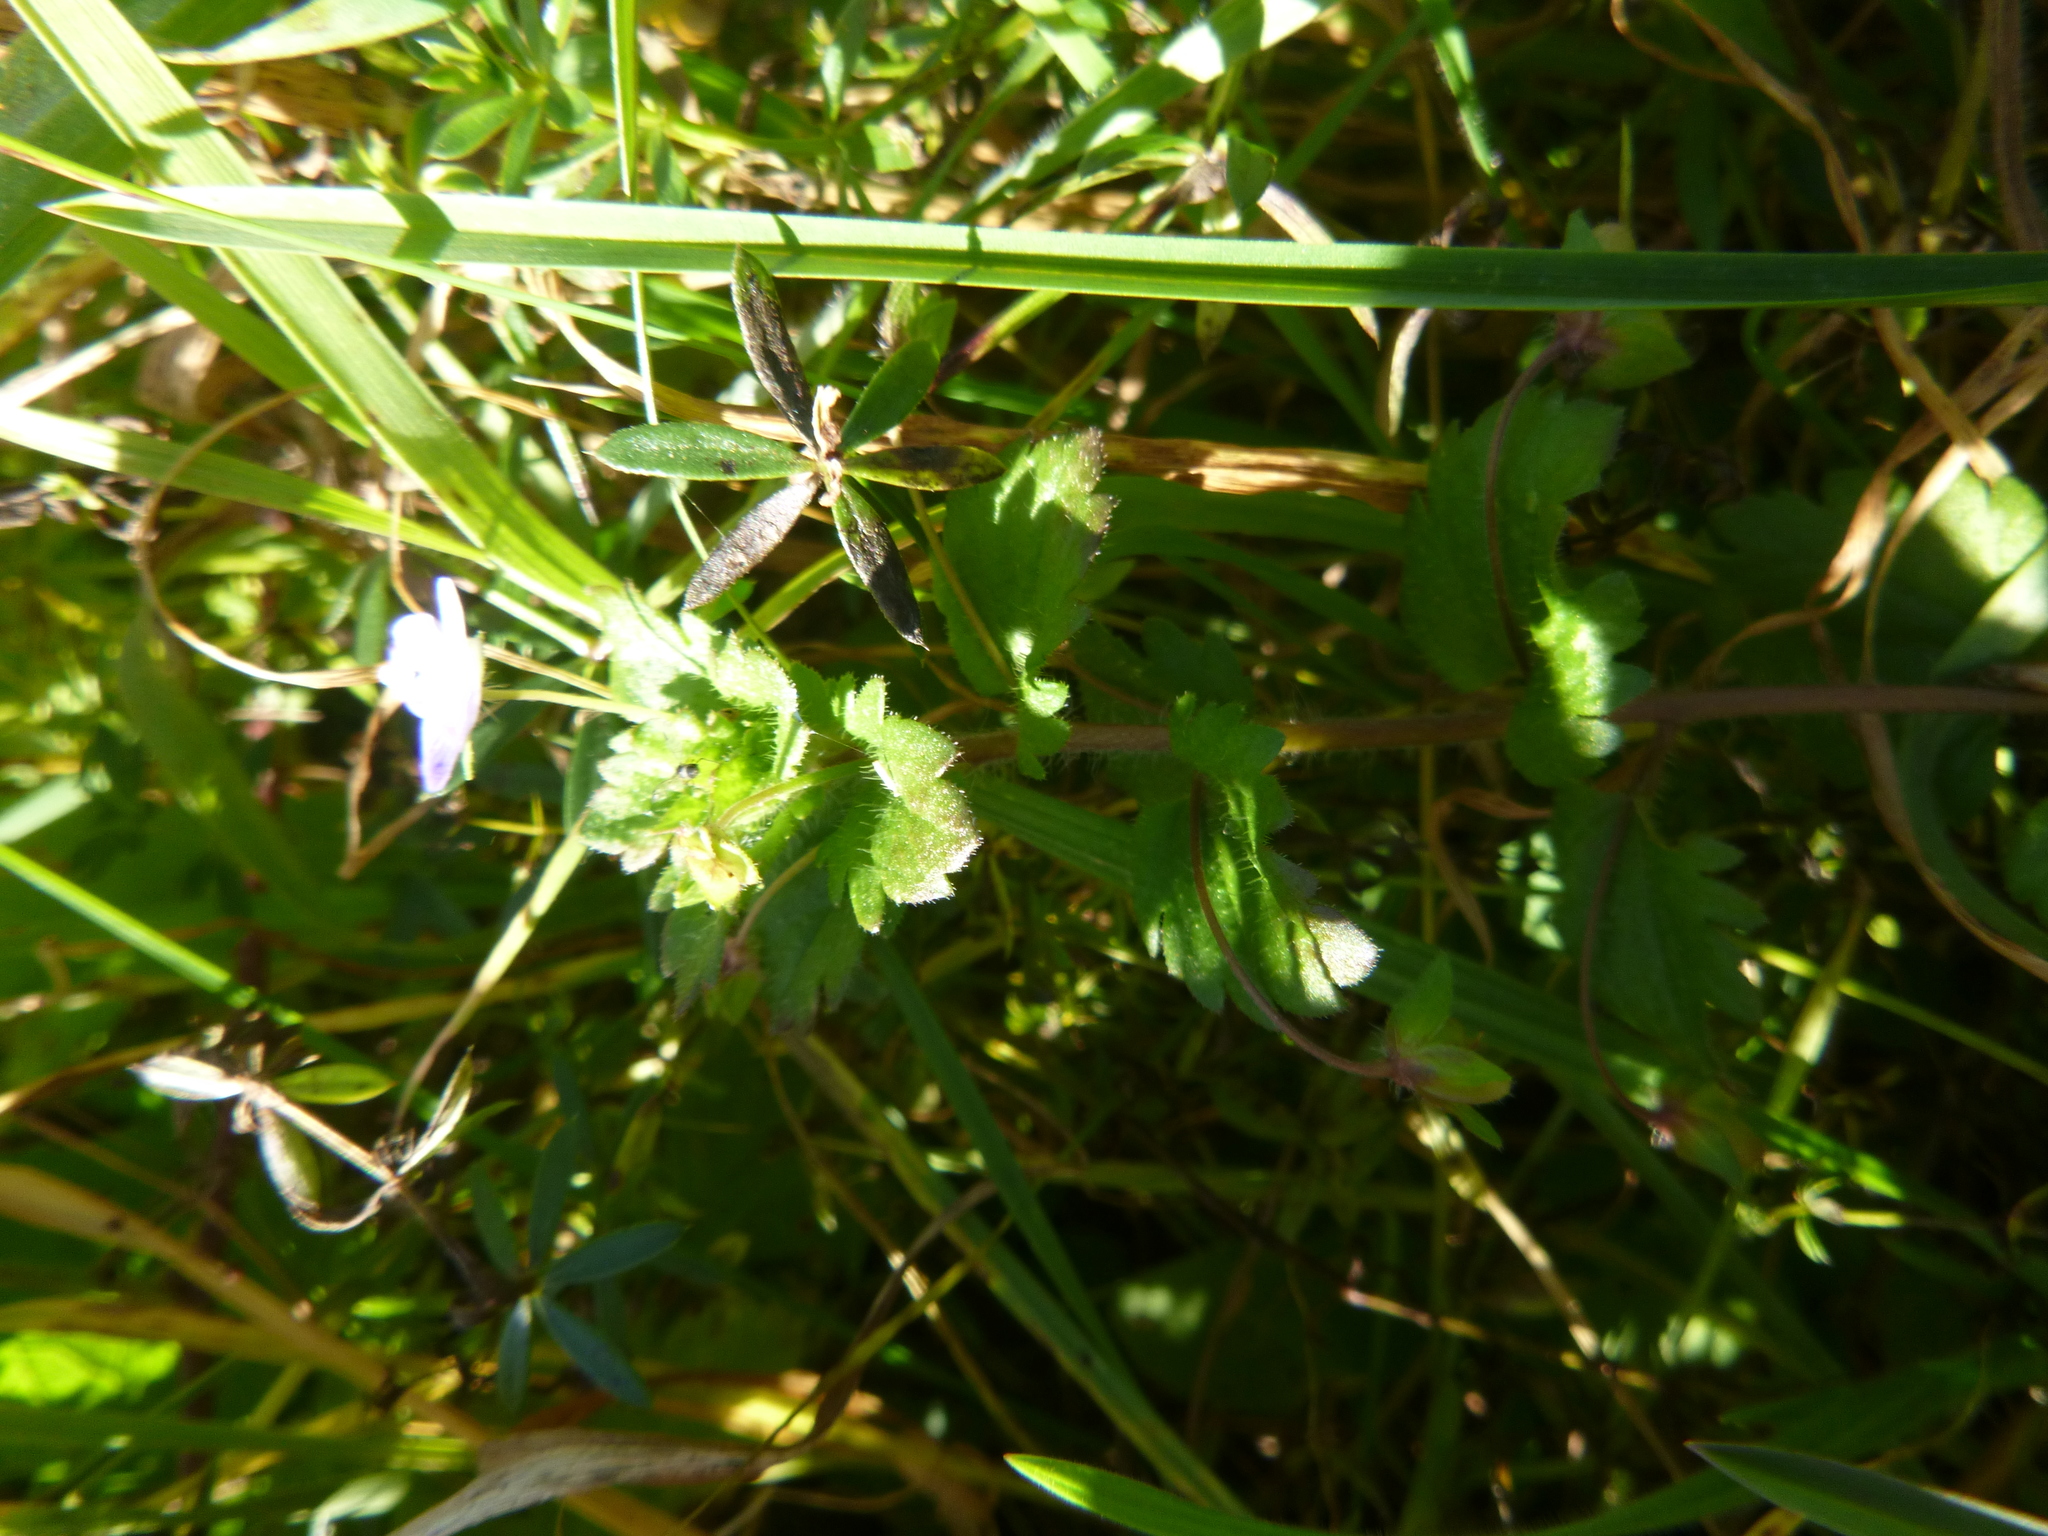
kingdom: Plantae
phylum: Tracheophyta
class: Magnoliopsida
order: Lamiales
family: Plantaginaceae
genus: Veronica
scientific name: Veronica persica
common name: Common field-speedwell
